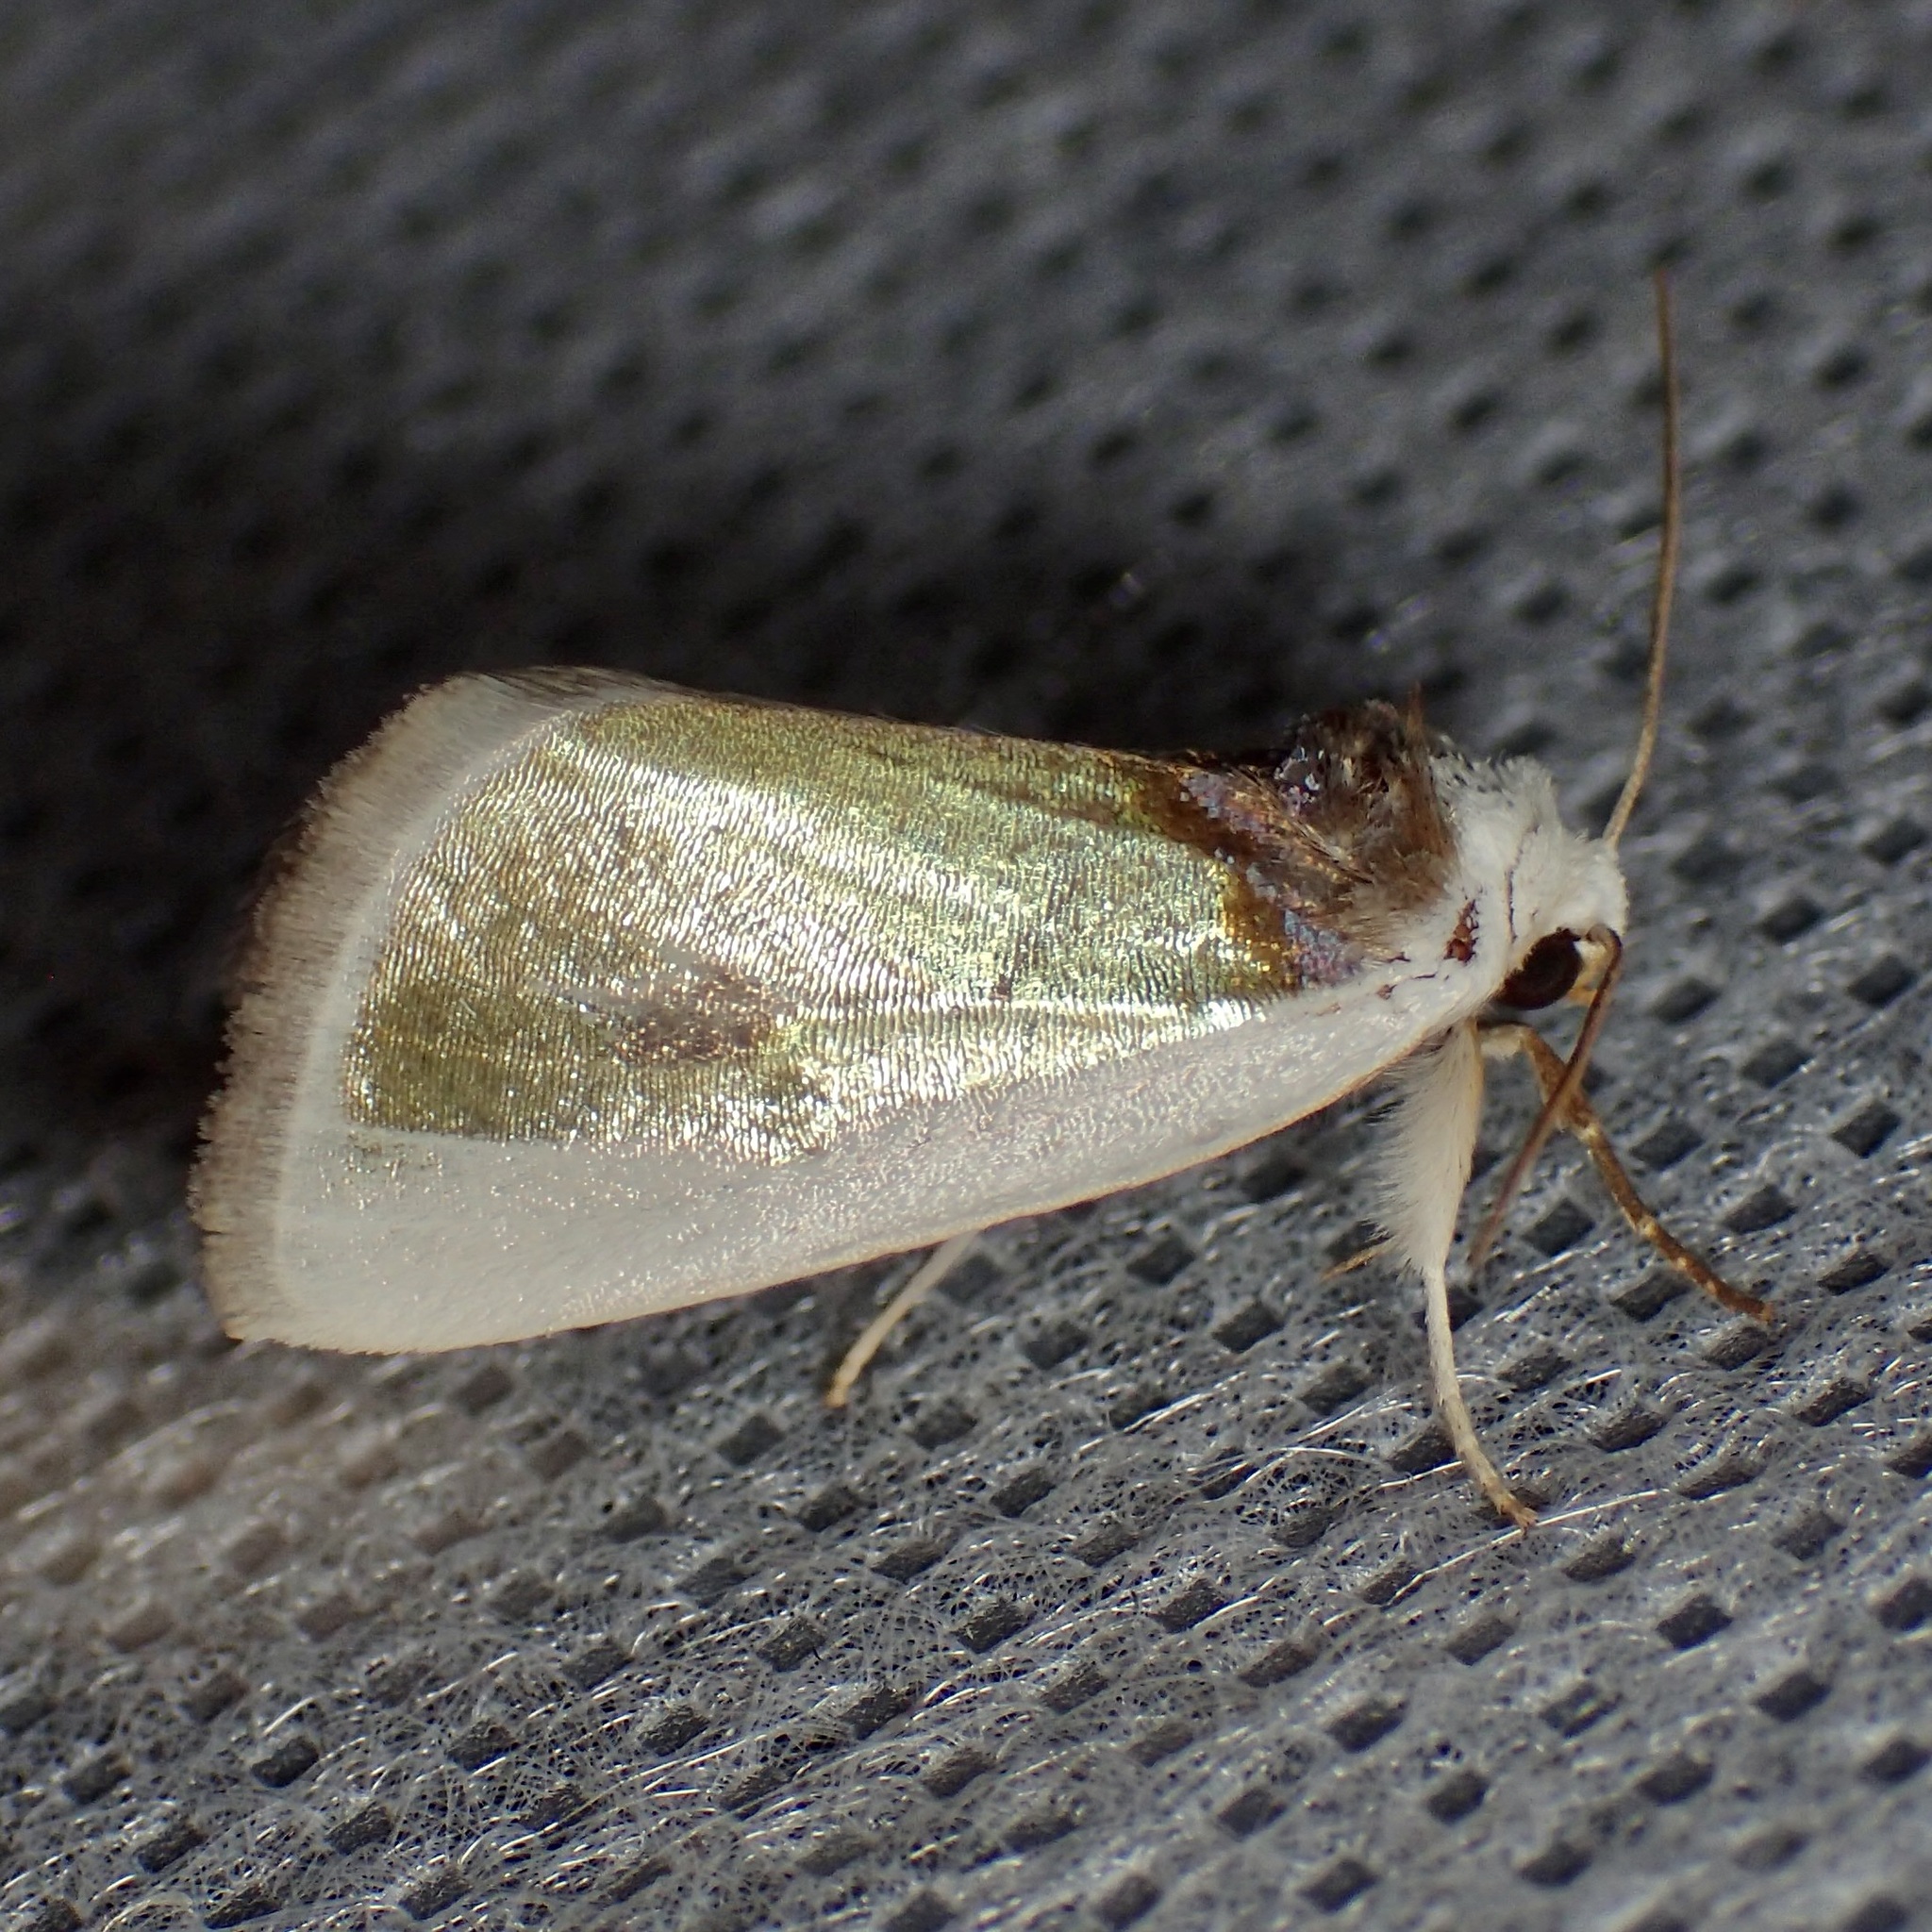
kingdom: Animalia
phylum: Arthropoda
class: Insecta
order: Lepidoptera
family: Noctuidae
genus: Neumoegenia
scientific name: Neumoegenia poetica
